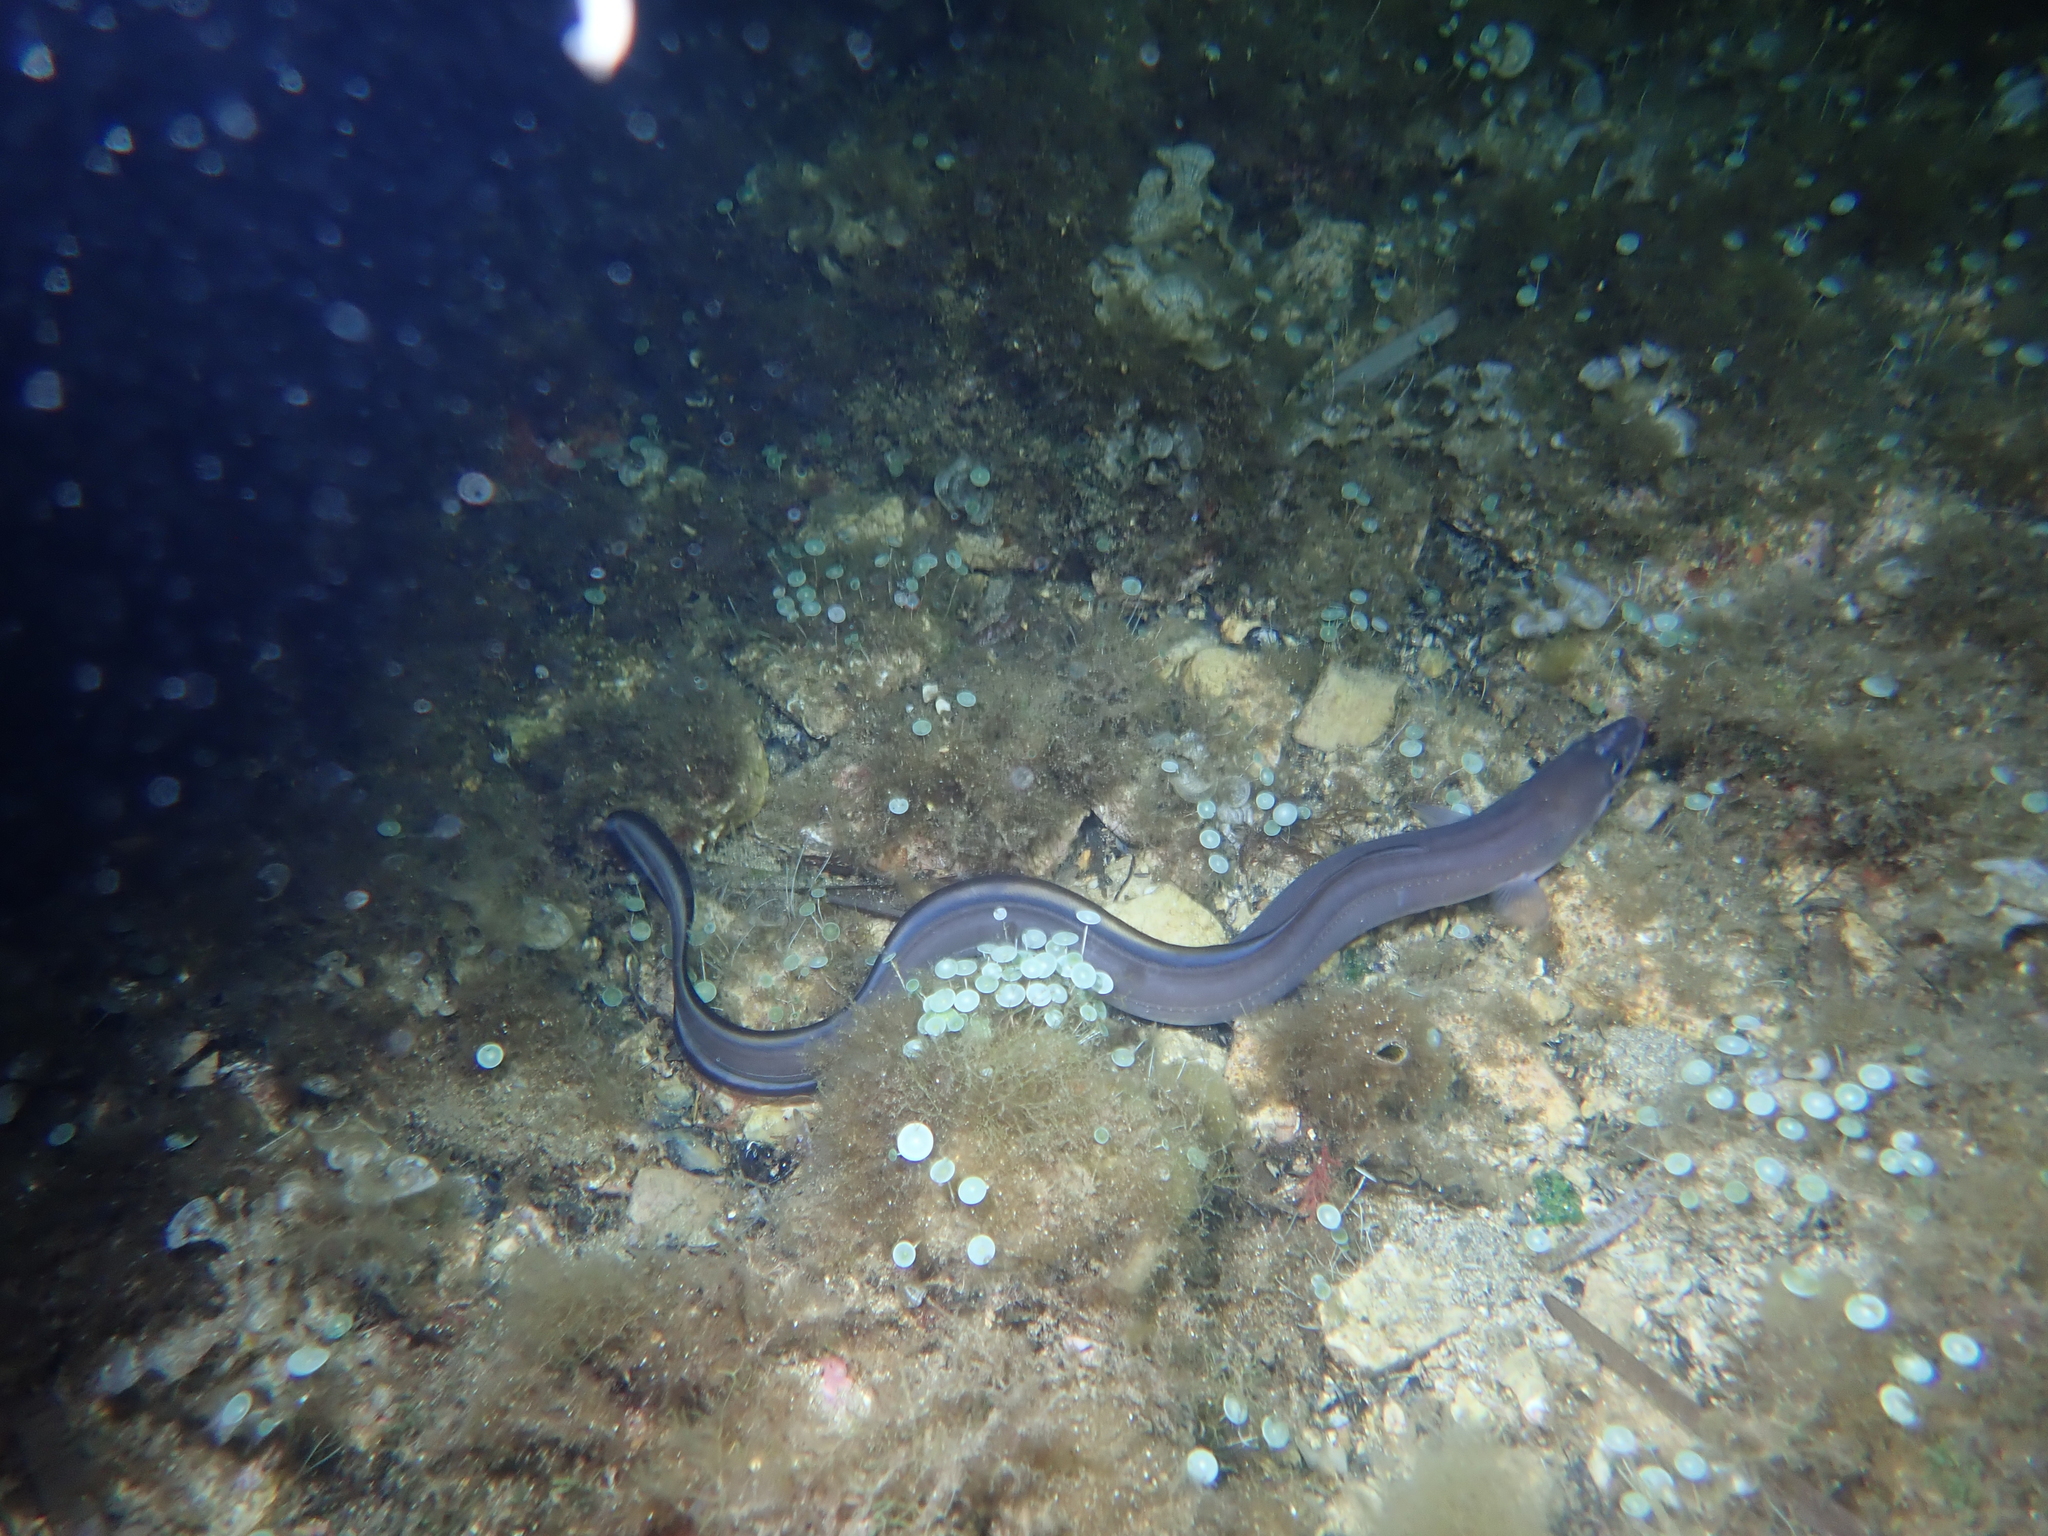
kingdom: Animalia
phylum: Chordata
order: Anguilliformes
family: Congridae
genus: Conger
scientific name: Conger conger
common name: Conger eel
